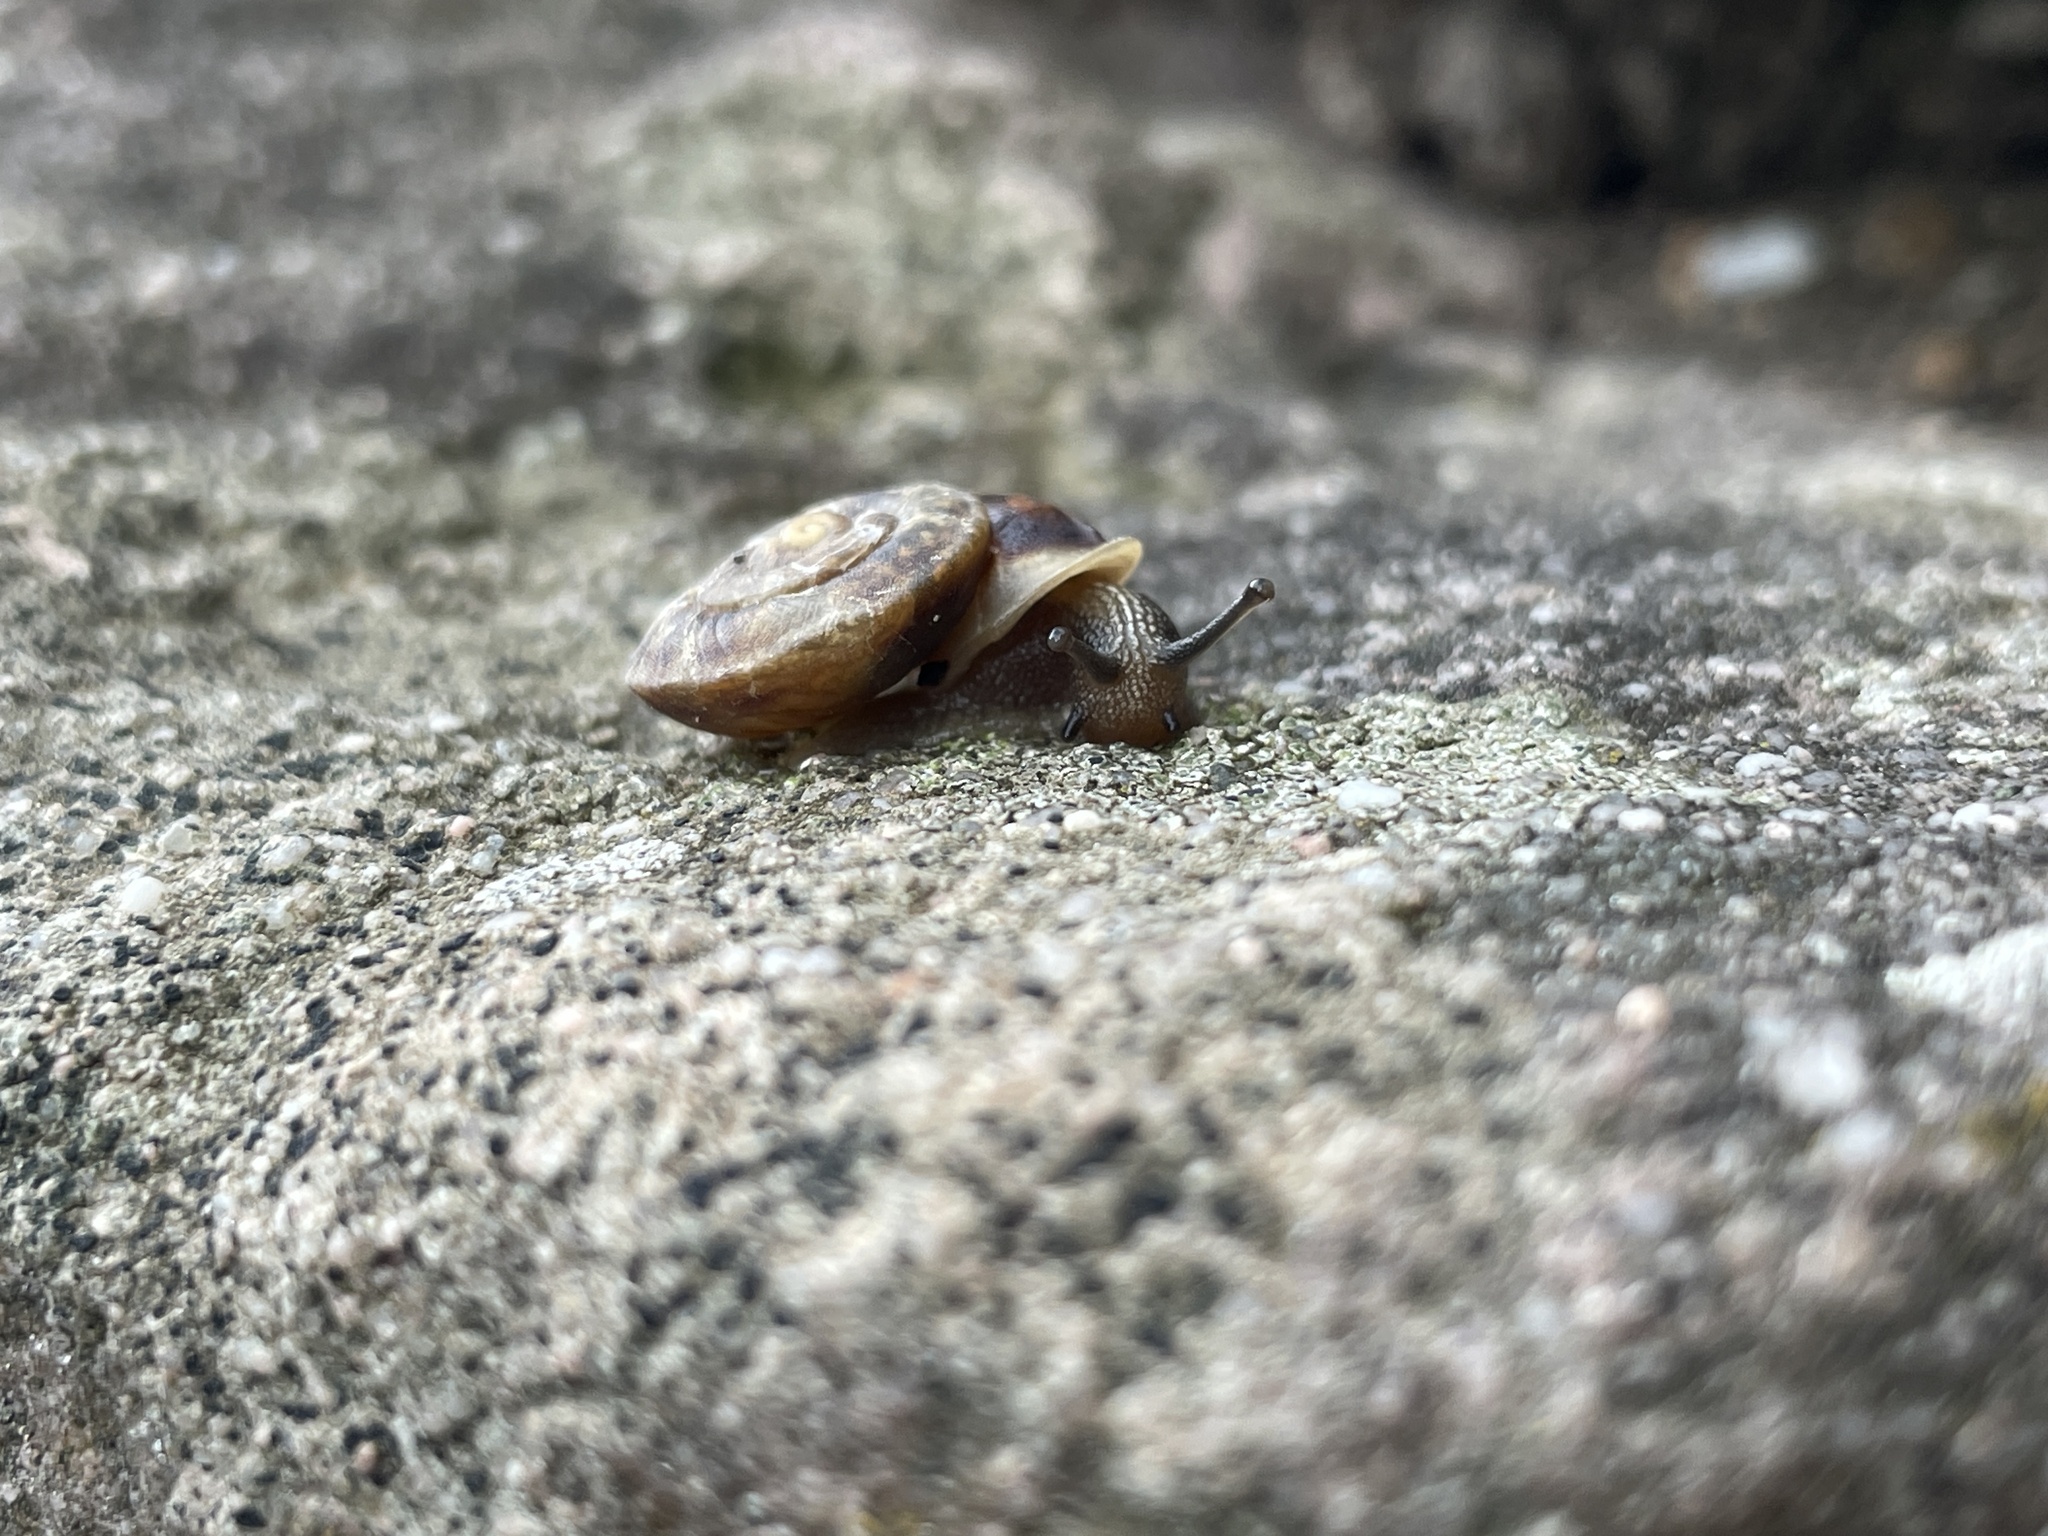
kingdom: Animalia
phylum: Mollusca
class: Gastropoda
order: Stylommatophora
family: Helicidae
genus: Helicigona
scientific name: Helicigona lapicida
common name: Lapidary snail
